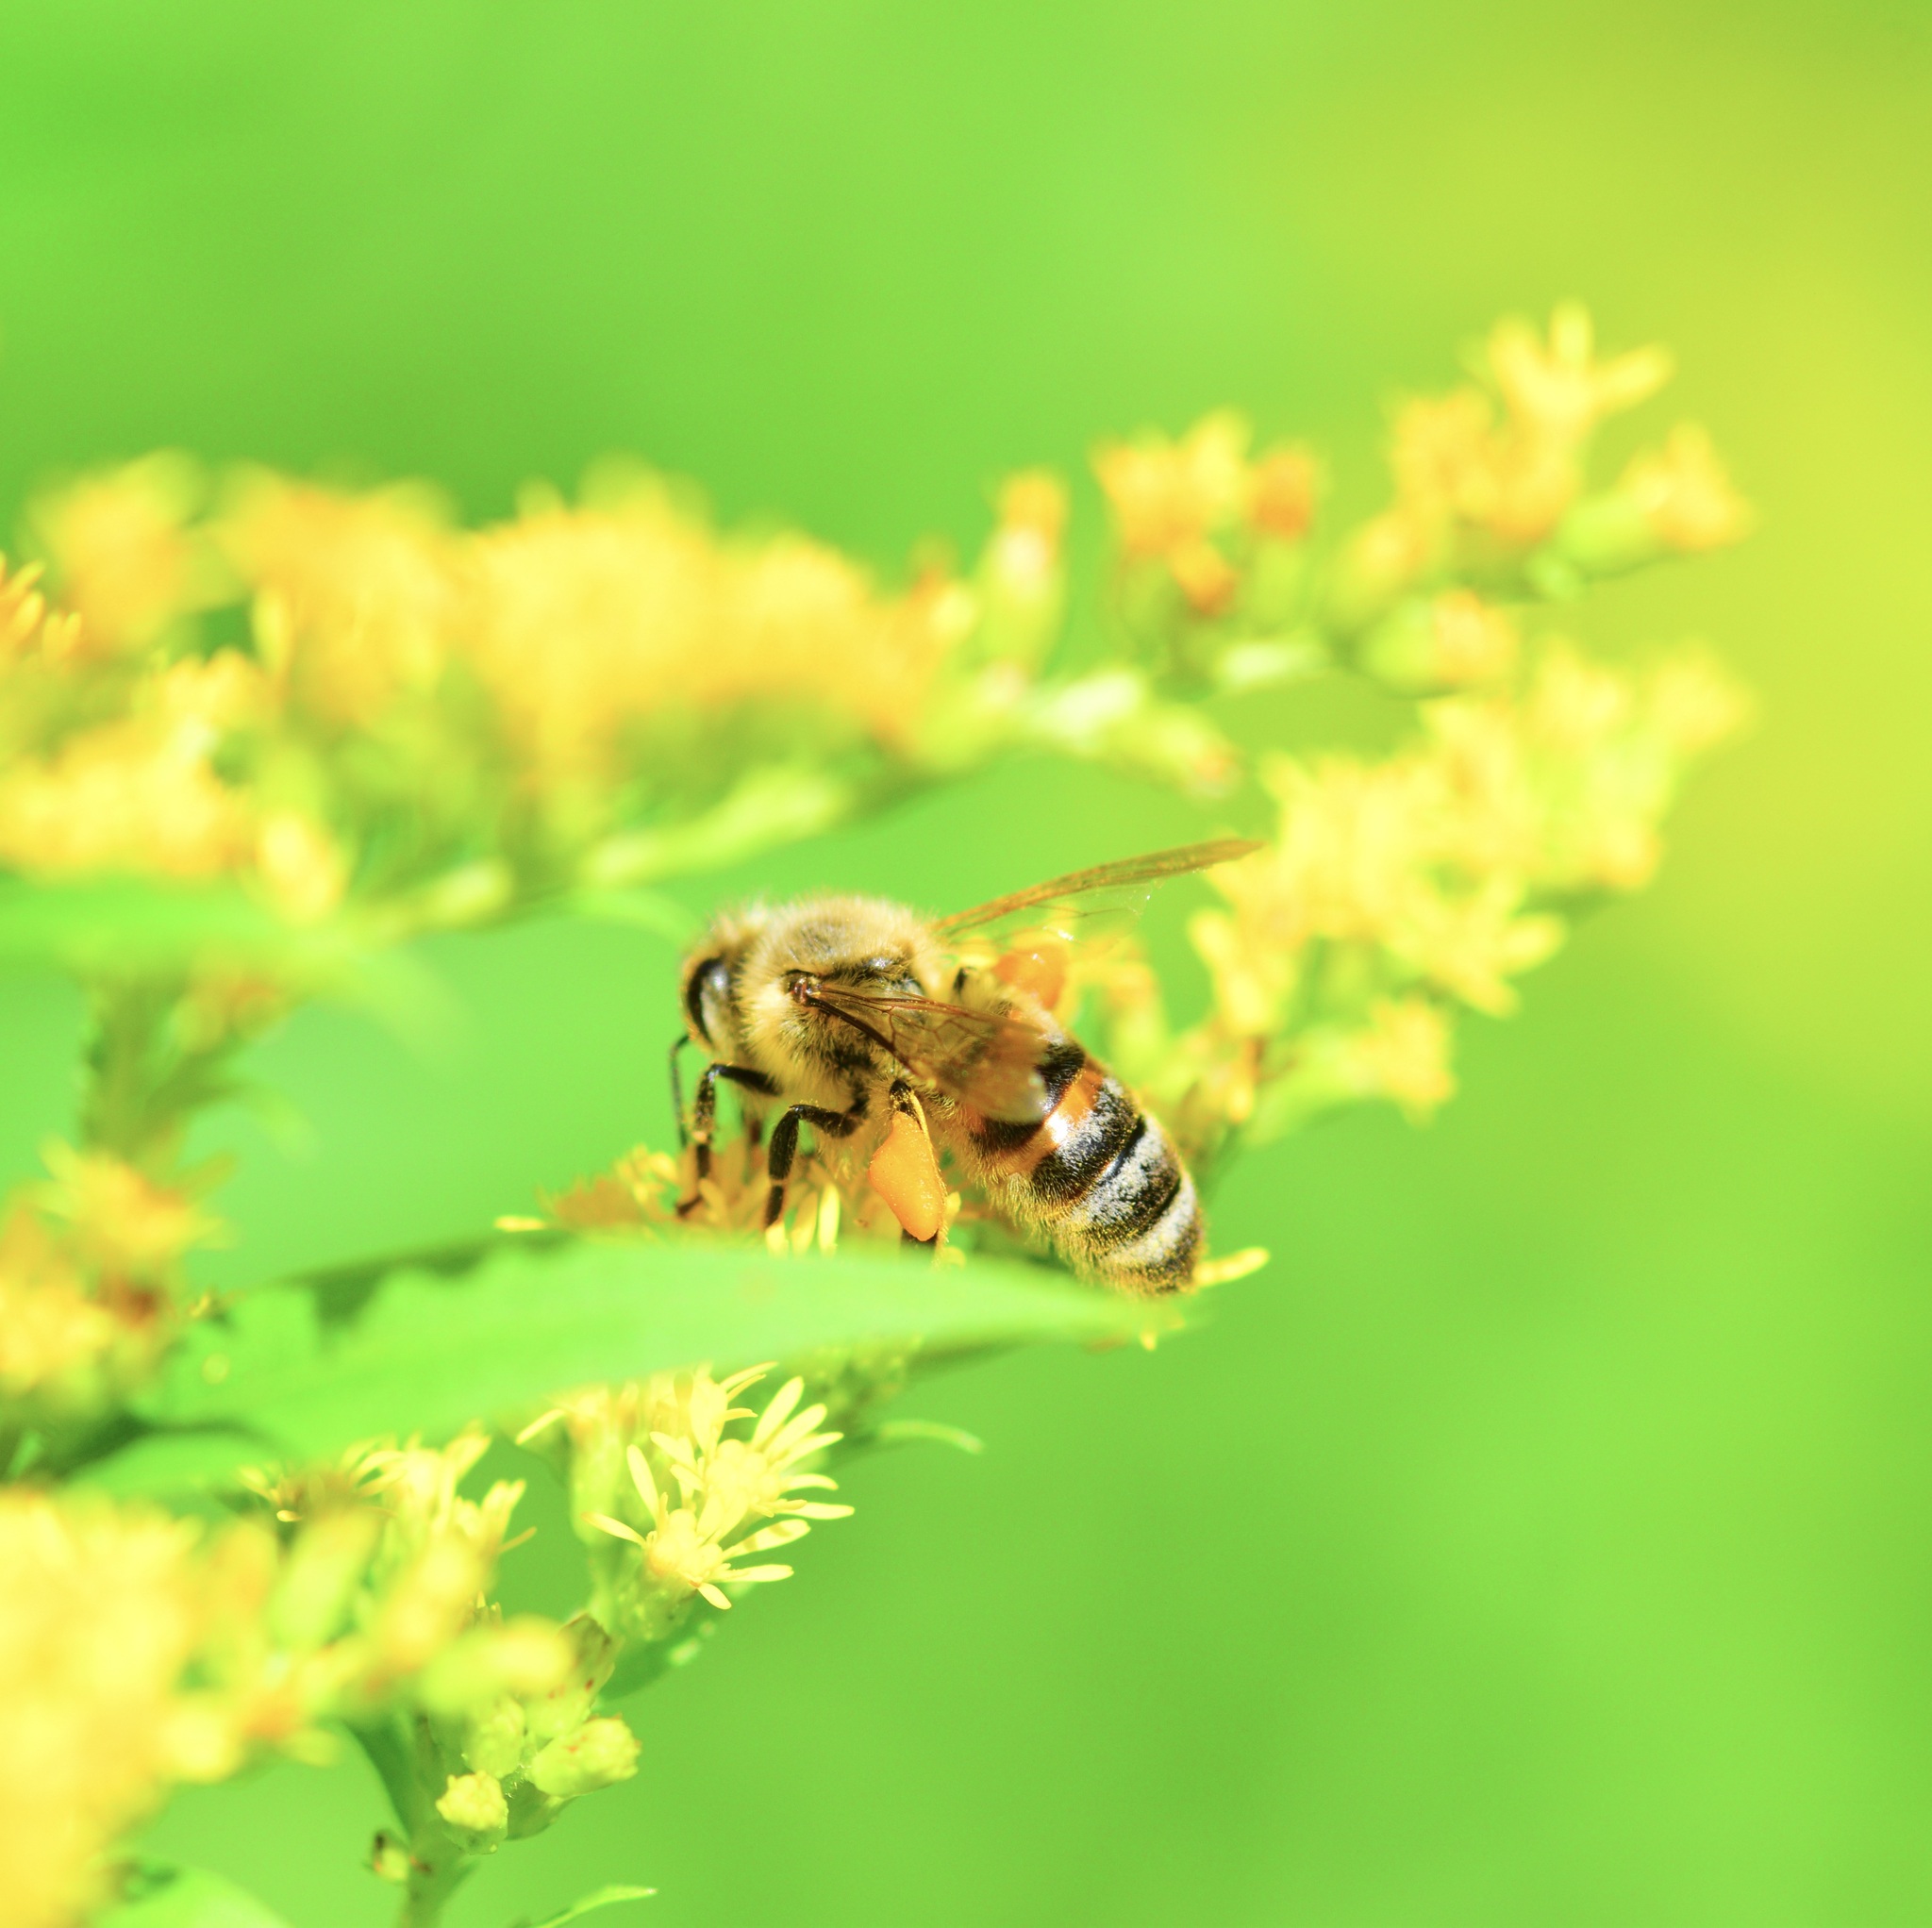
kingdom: Animalia
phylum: Arthropoda
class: Insecta
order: Hymenoptera
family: Apidae
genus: Apis
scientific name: Apis mellifera
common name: Honey bee
